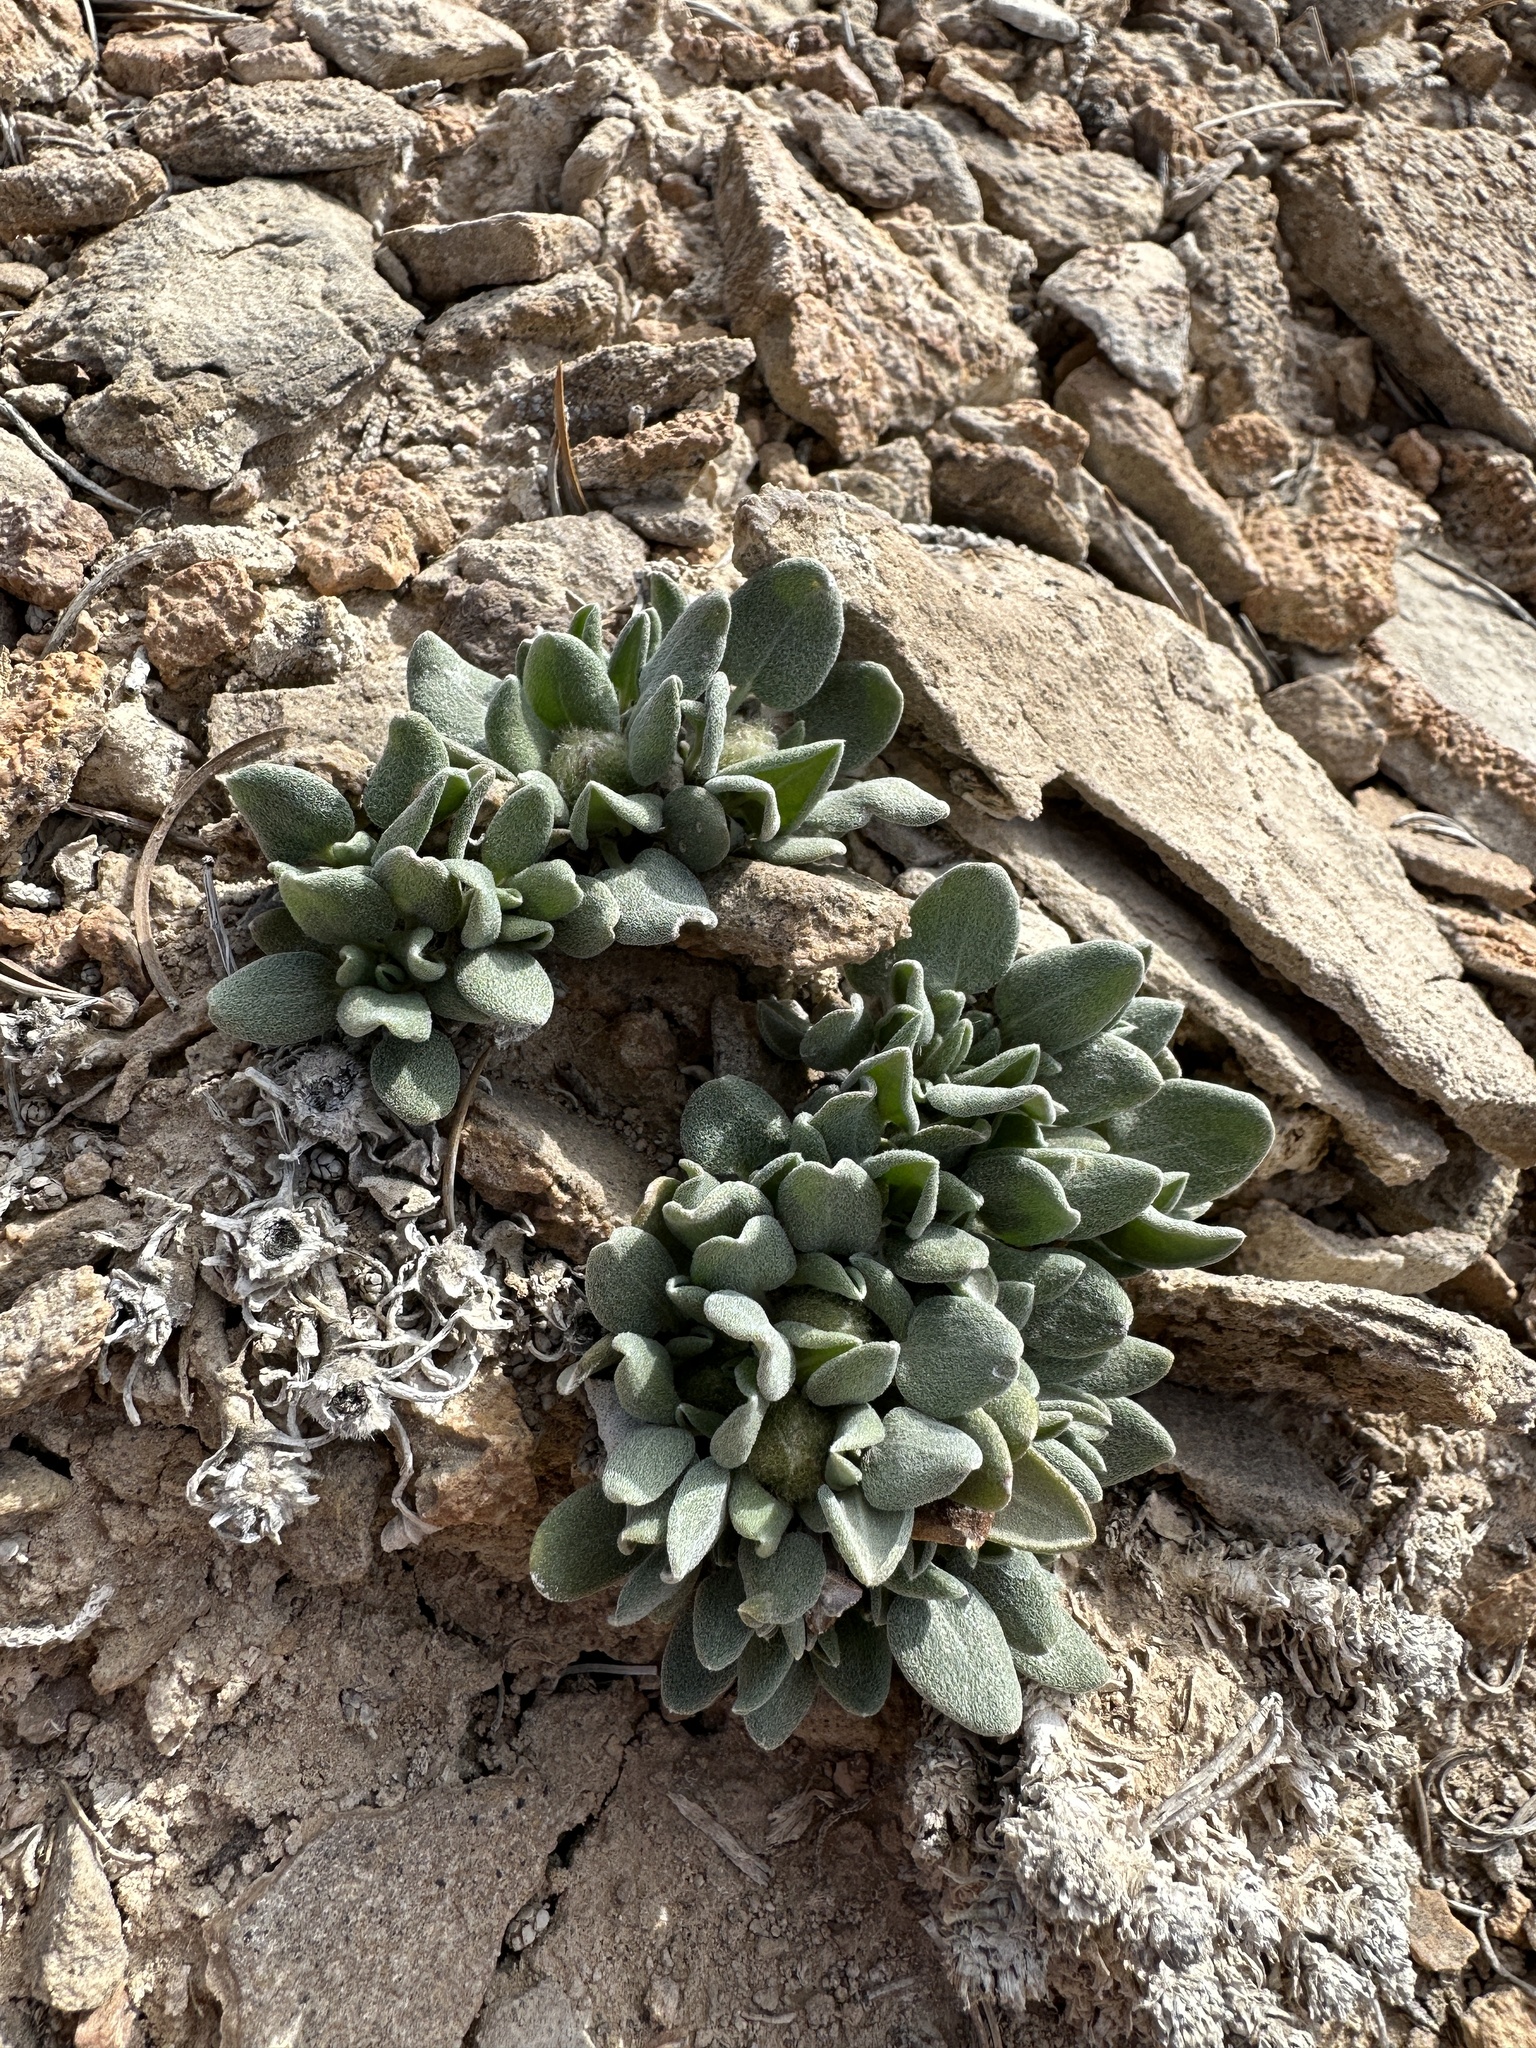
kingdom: Plantae
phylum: Tracheophyta
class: Magnoliopsida
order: Asterales
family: Asteraceae
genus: Chamaechaenactis
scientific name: Chamaechaenactis scaposa
